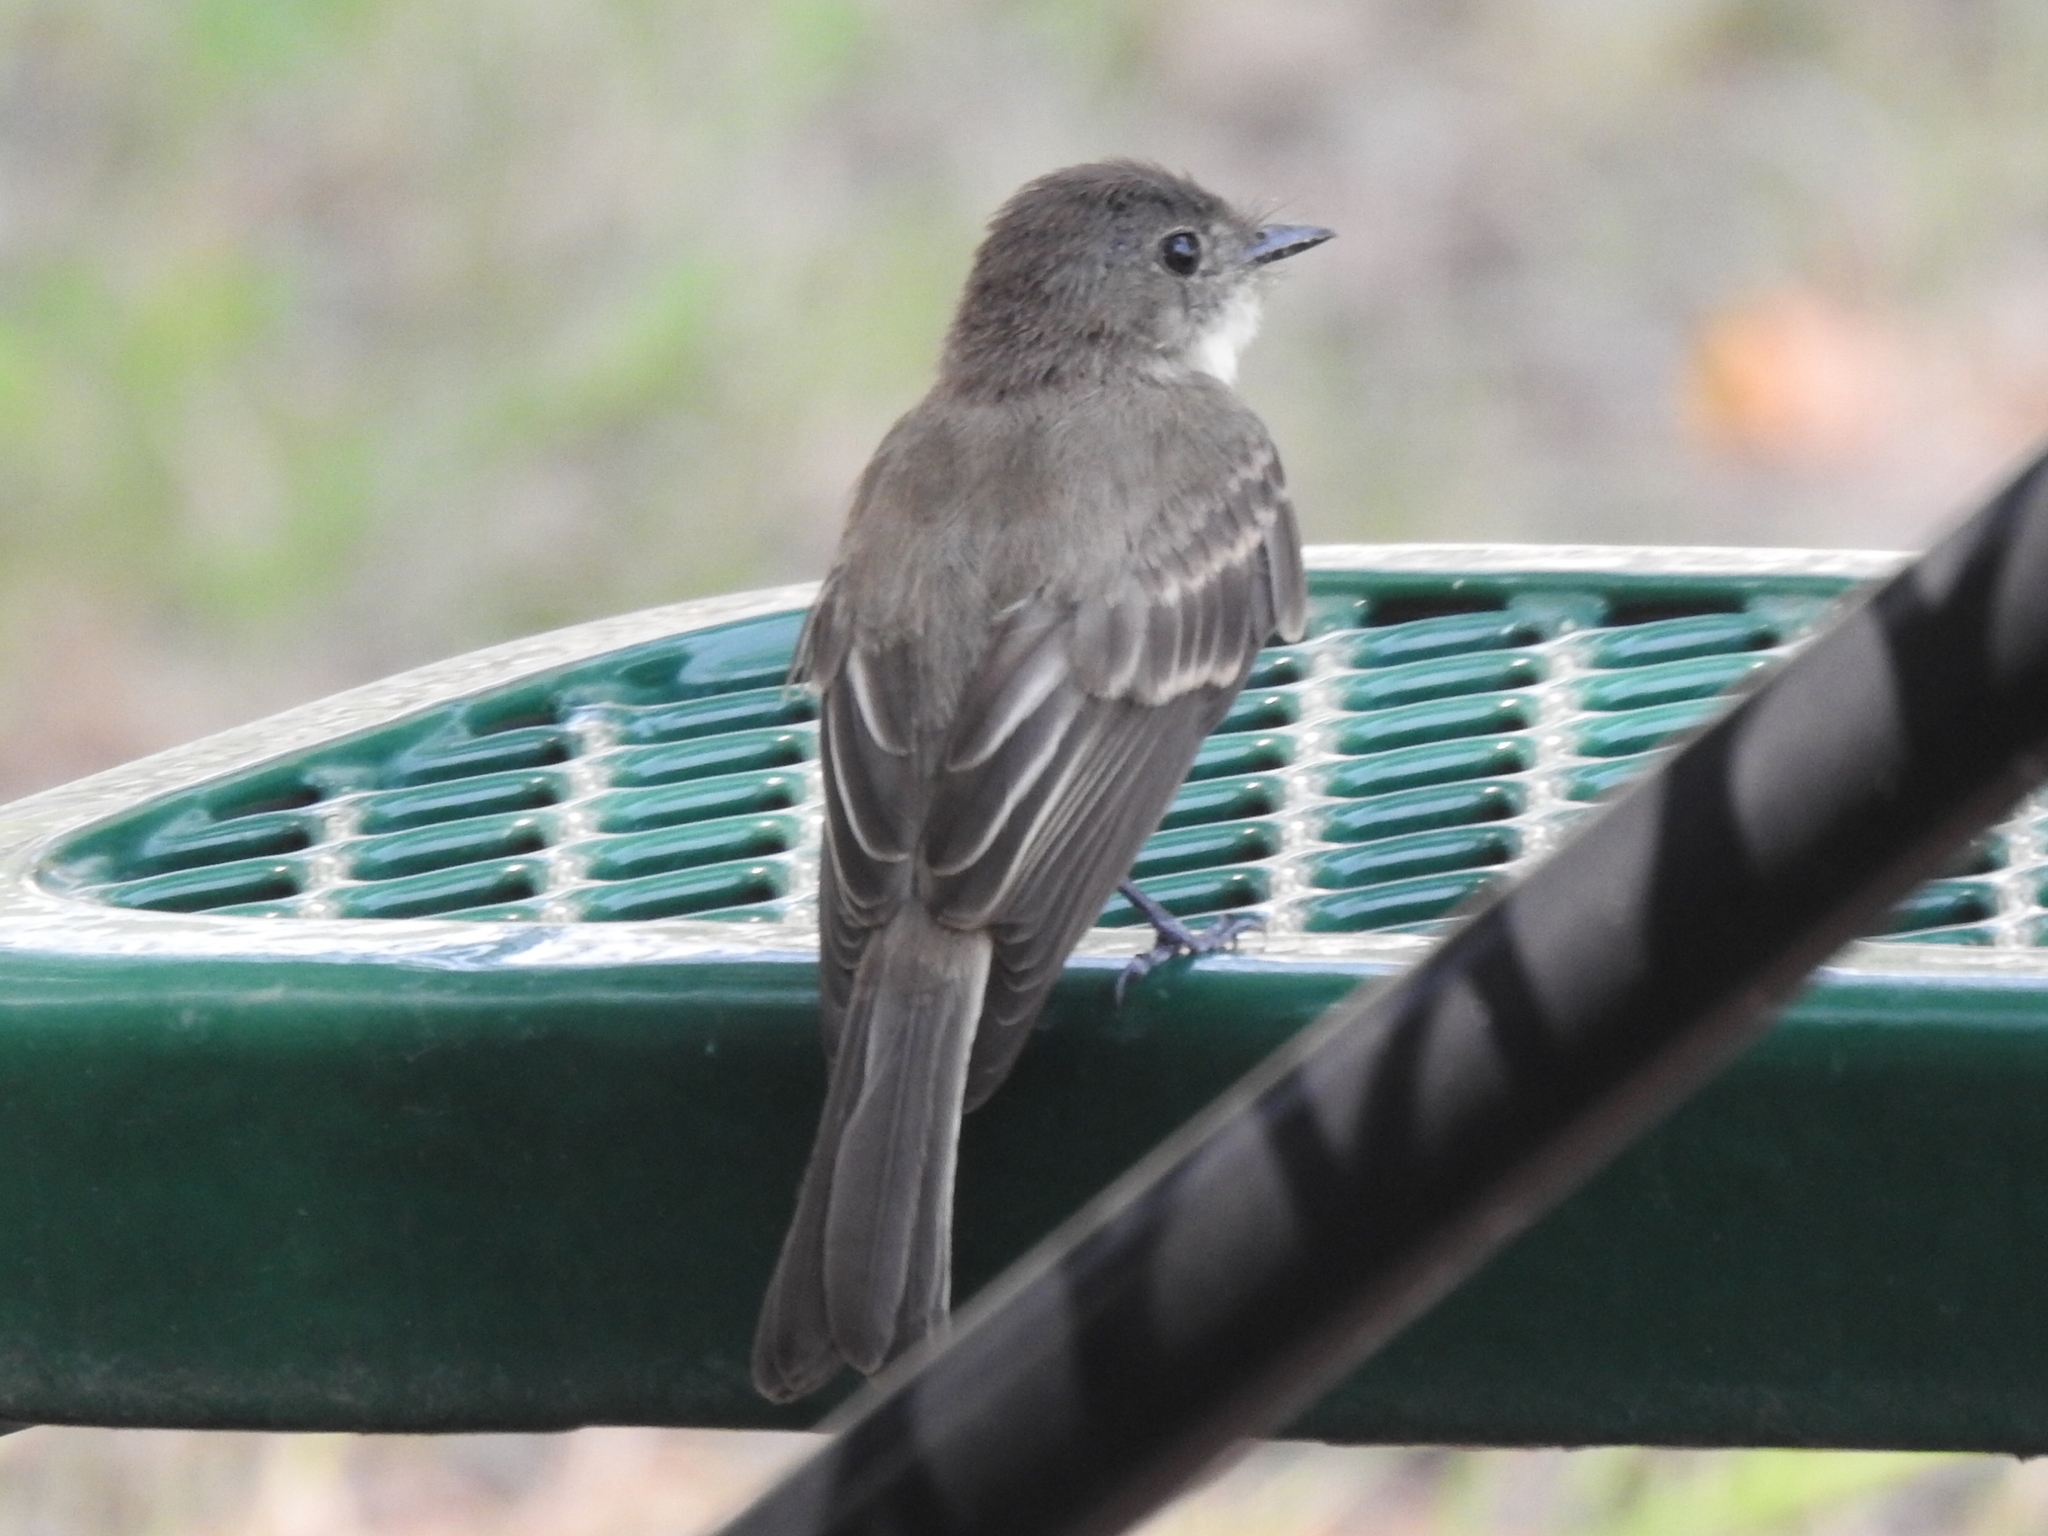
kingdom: Animalia
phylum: Chordata
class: Aves
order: Passeriformes
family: Tyrannidae
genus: Sayornis
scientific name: Sayornis phoebe
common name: Eastern phoebe
